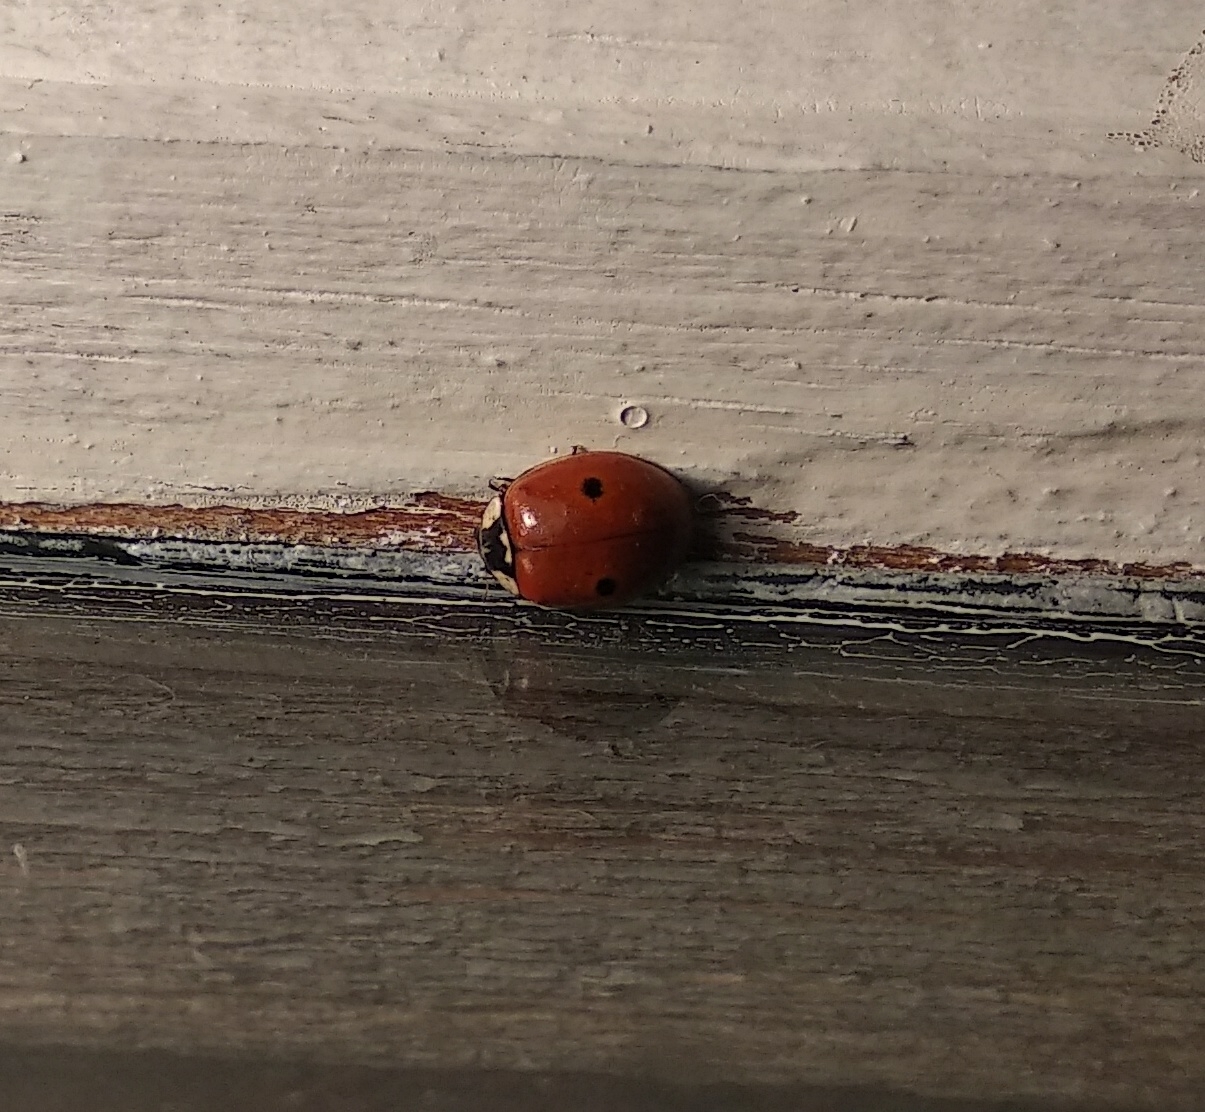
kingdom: Animalia
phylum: Arthropoda
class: Insecta
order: Coleoptera
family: Coccinellidae
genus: Adalia
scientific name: Adalia bipunctata
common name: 2-spot ladybird
